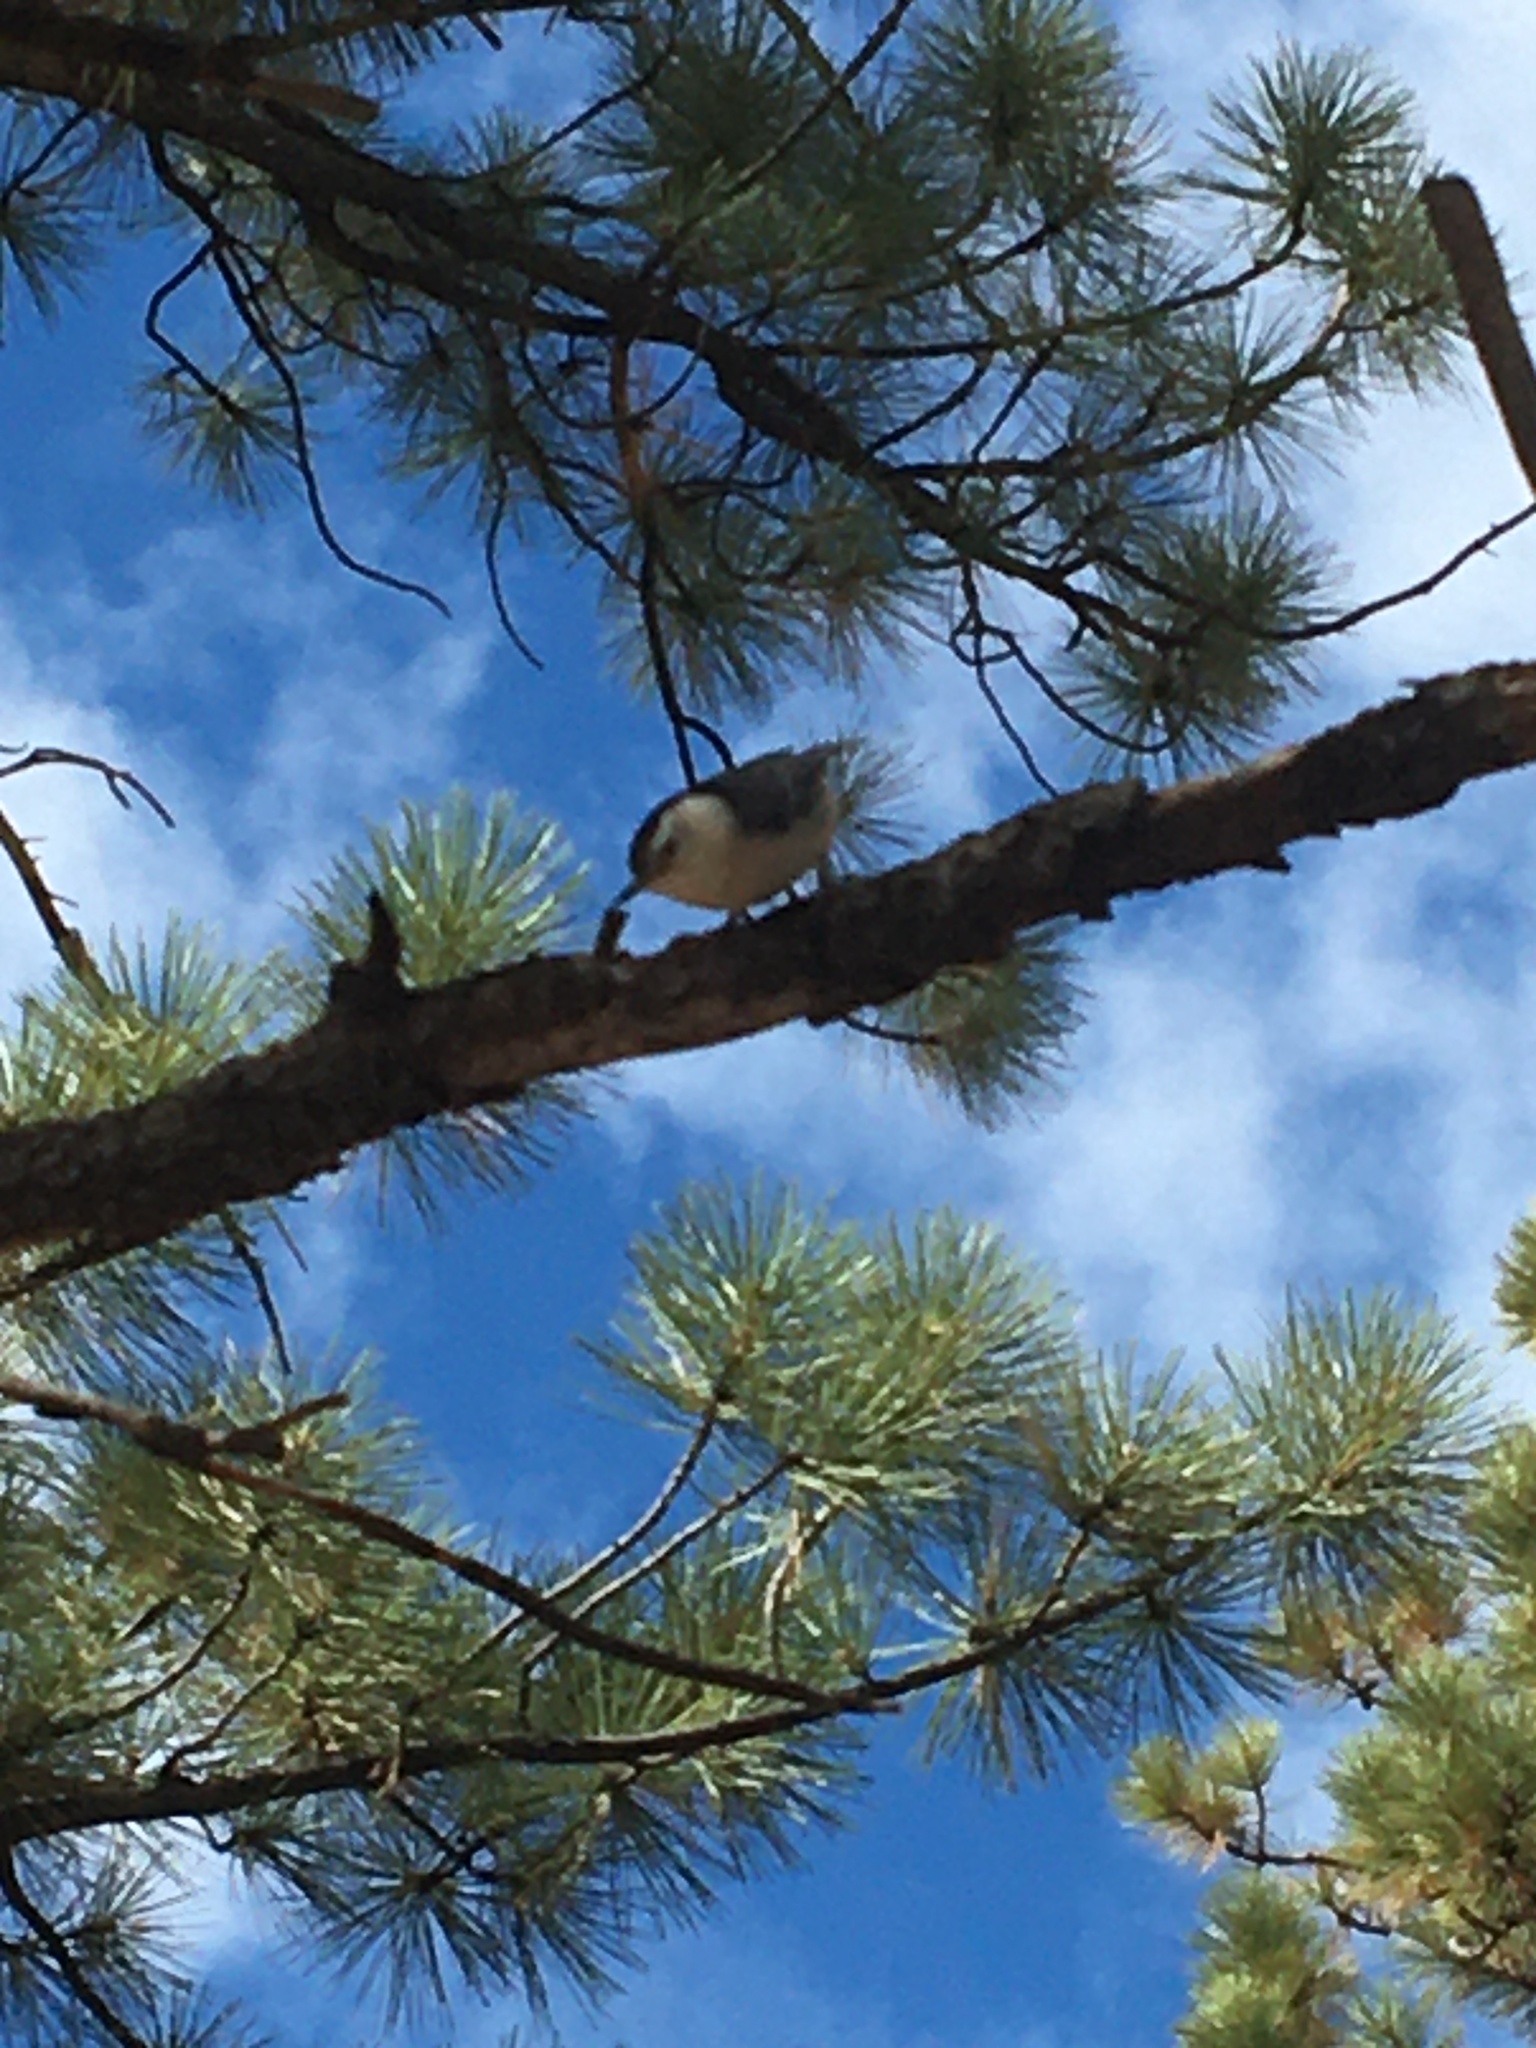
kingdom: Animalia
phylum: Chordata
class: Aves
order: Passeriformes
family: Sittidae
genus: Sitta
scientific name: Sitta carolinensis
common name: White-breasted nuthatch
